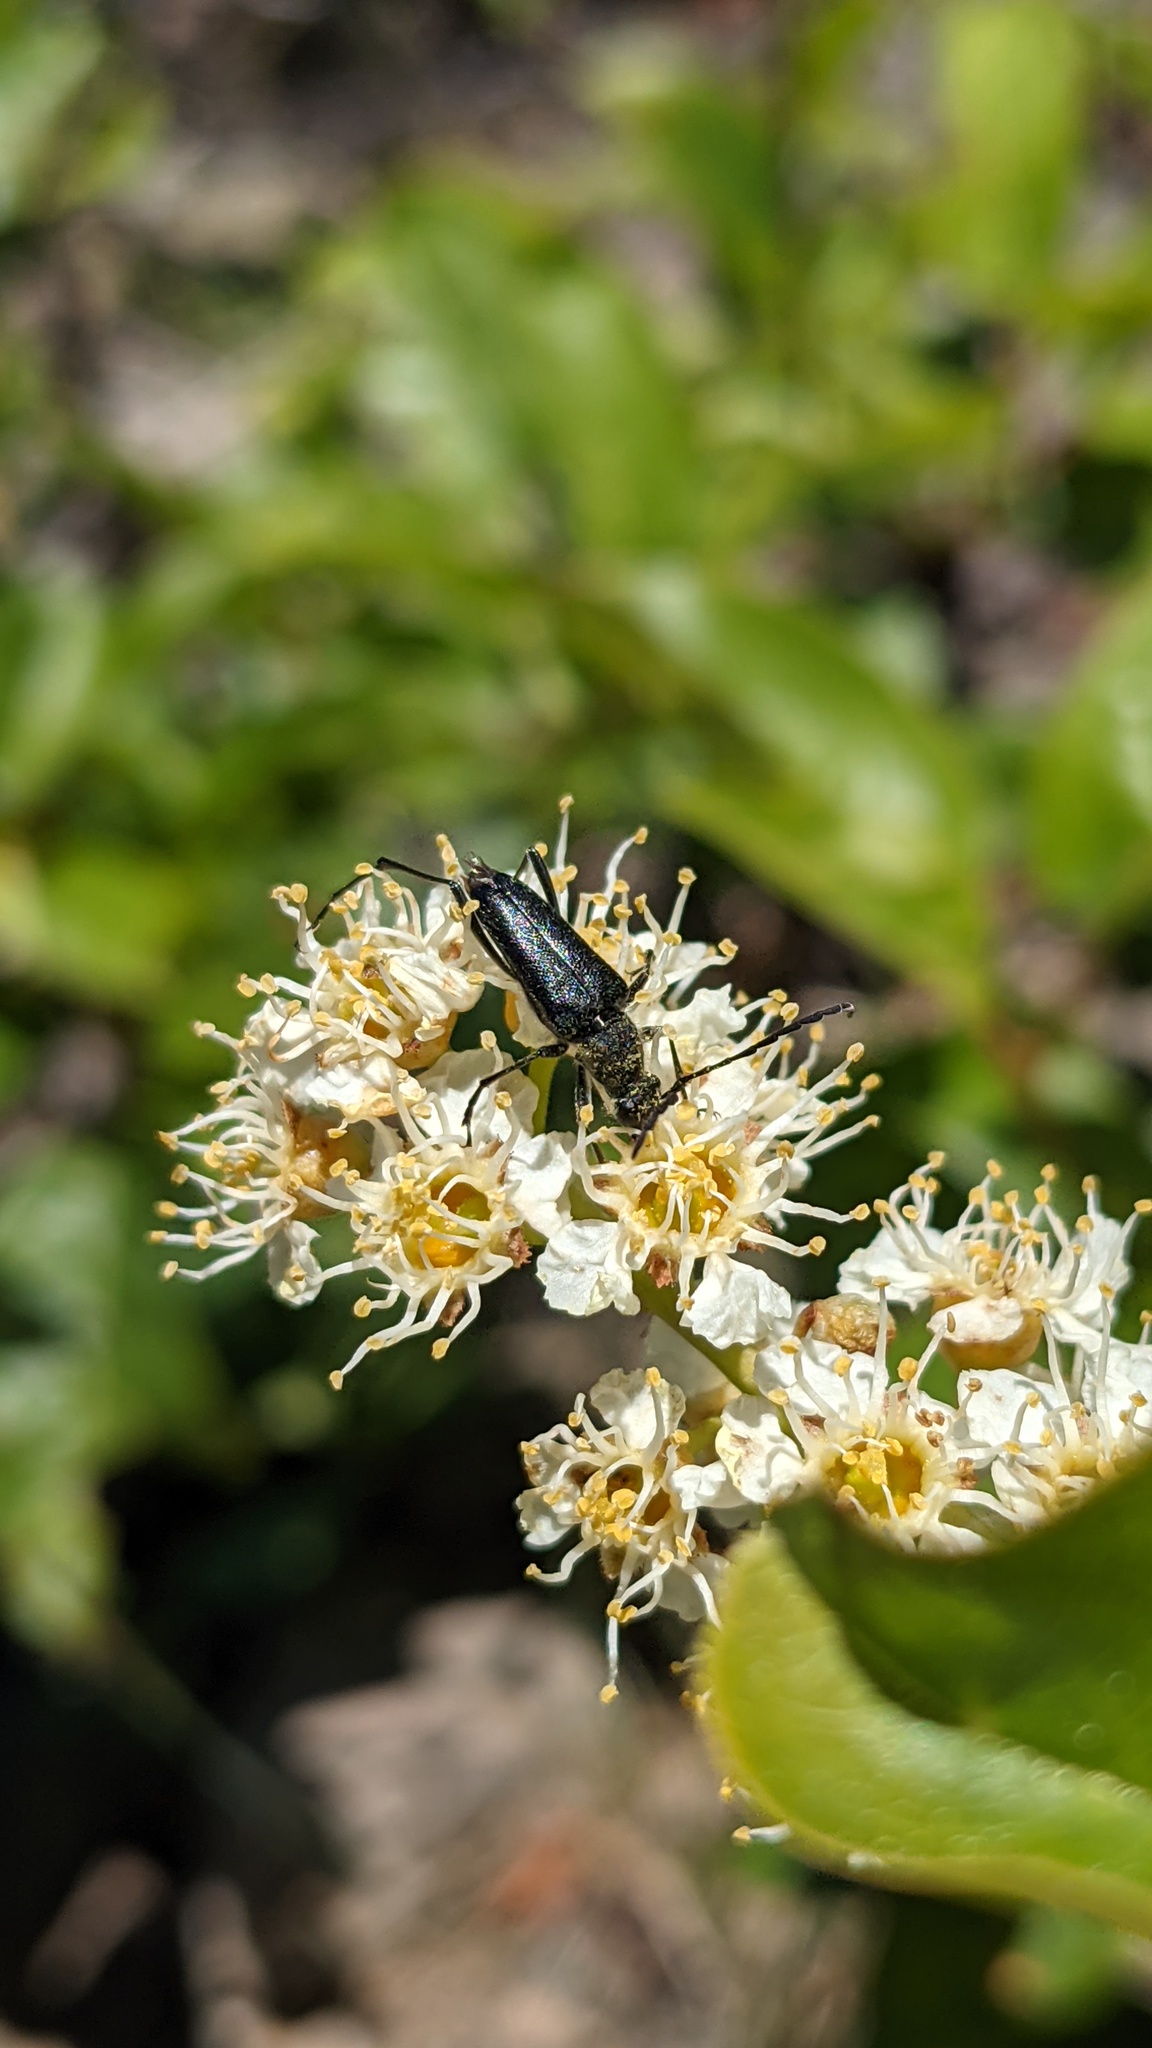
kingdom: Animalia
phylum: Arthropoda
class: Insecta
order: Coleoptera
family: Cerambycidae
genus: Anastrangalia
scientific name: Anastrangalia laetifica
